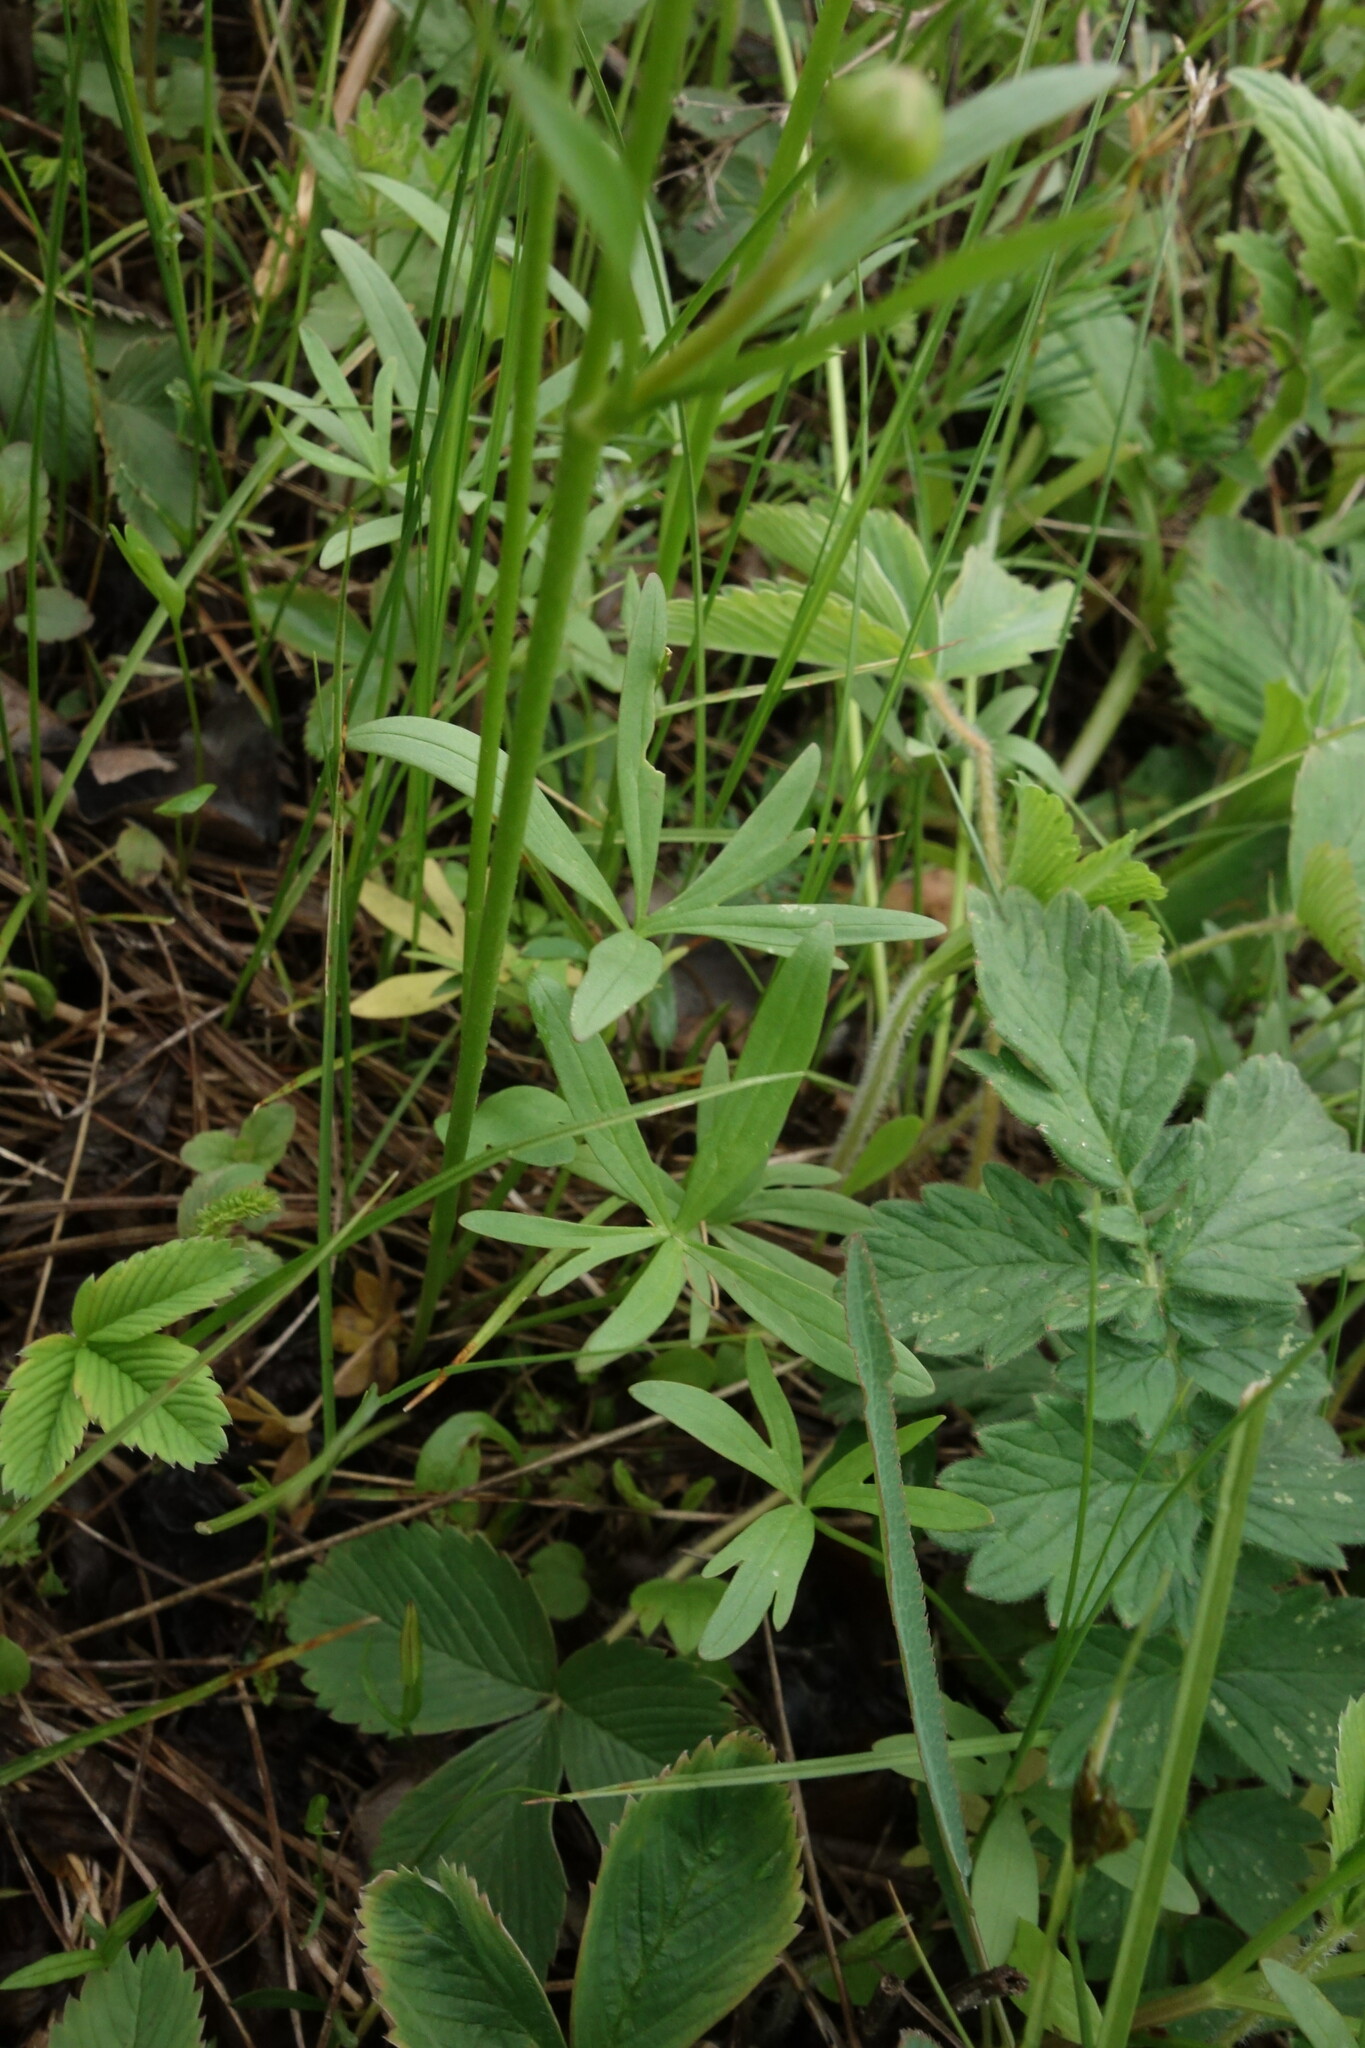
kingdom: Plantae
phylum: Tracheophyta
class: Magnoliopsida
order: Ranunculales
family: Ranunculaceae
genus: Ranunculus
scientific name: Ranunculus pedatus
